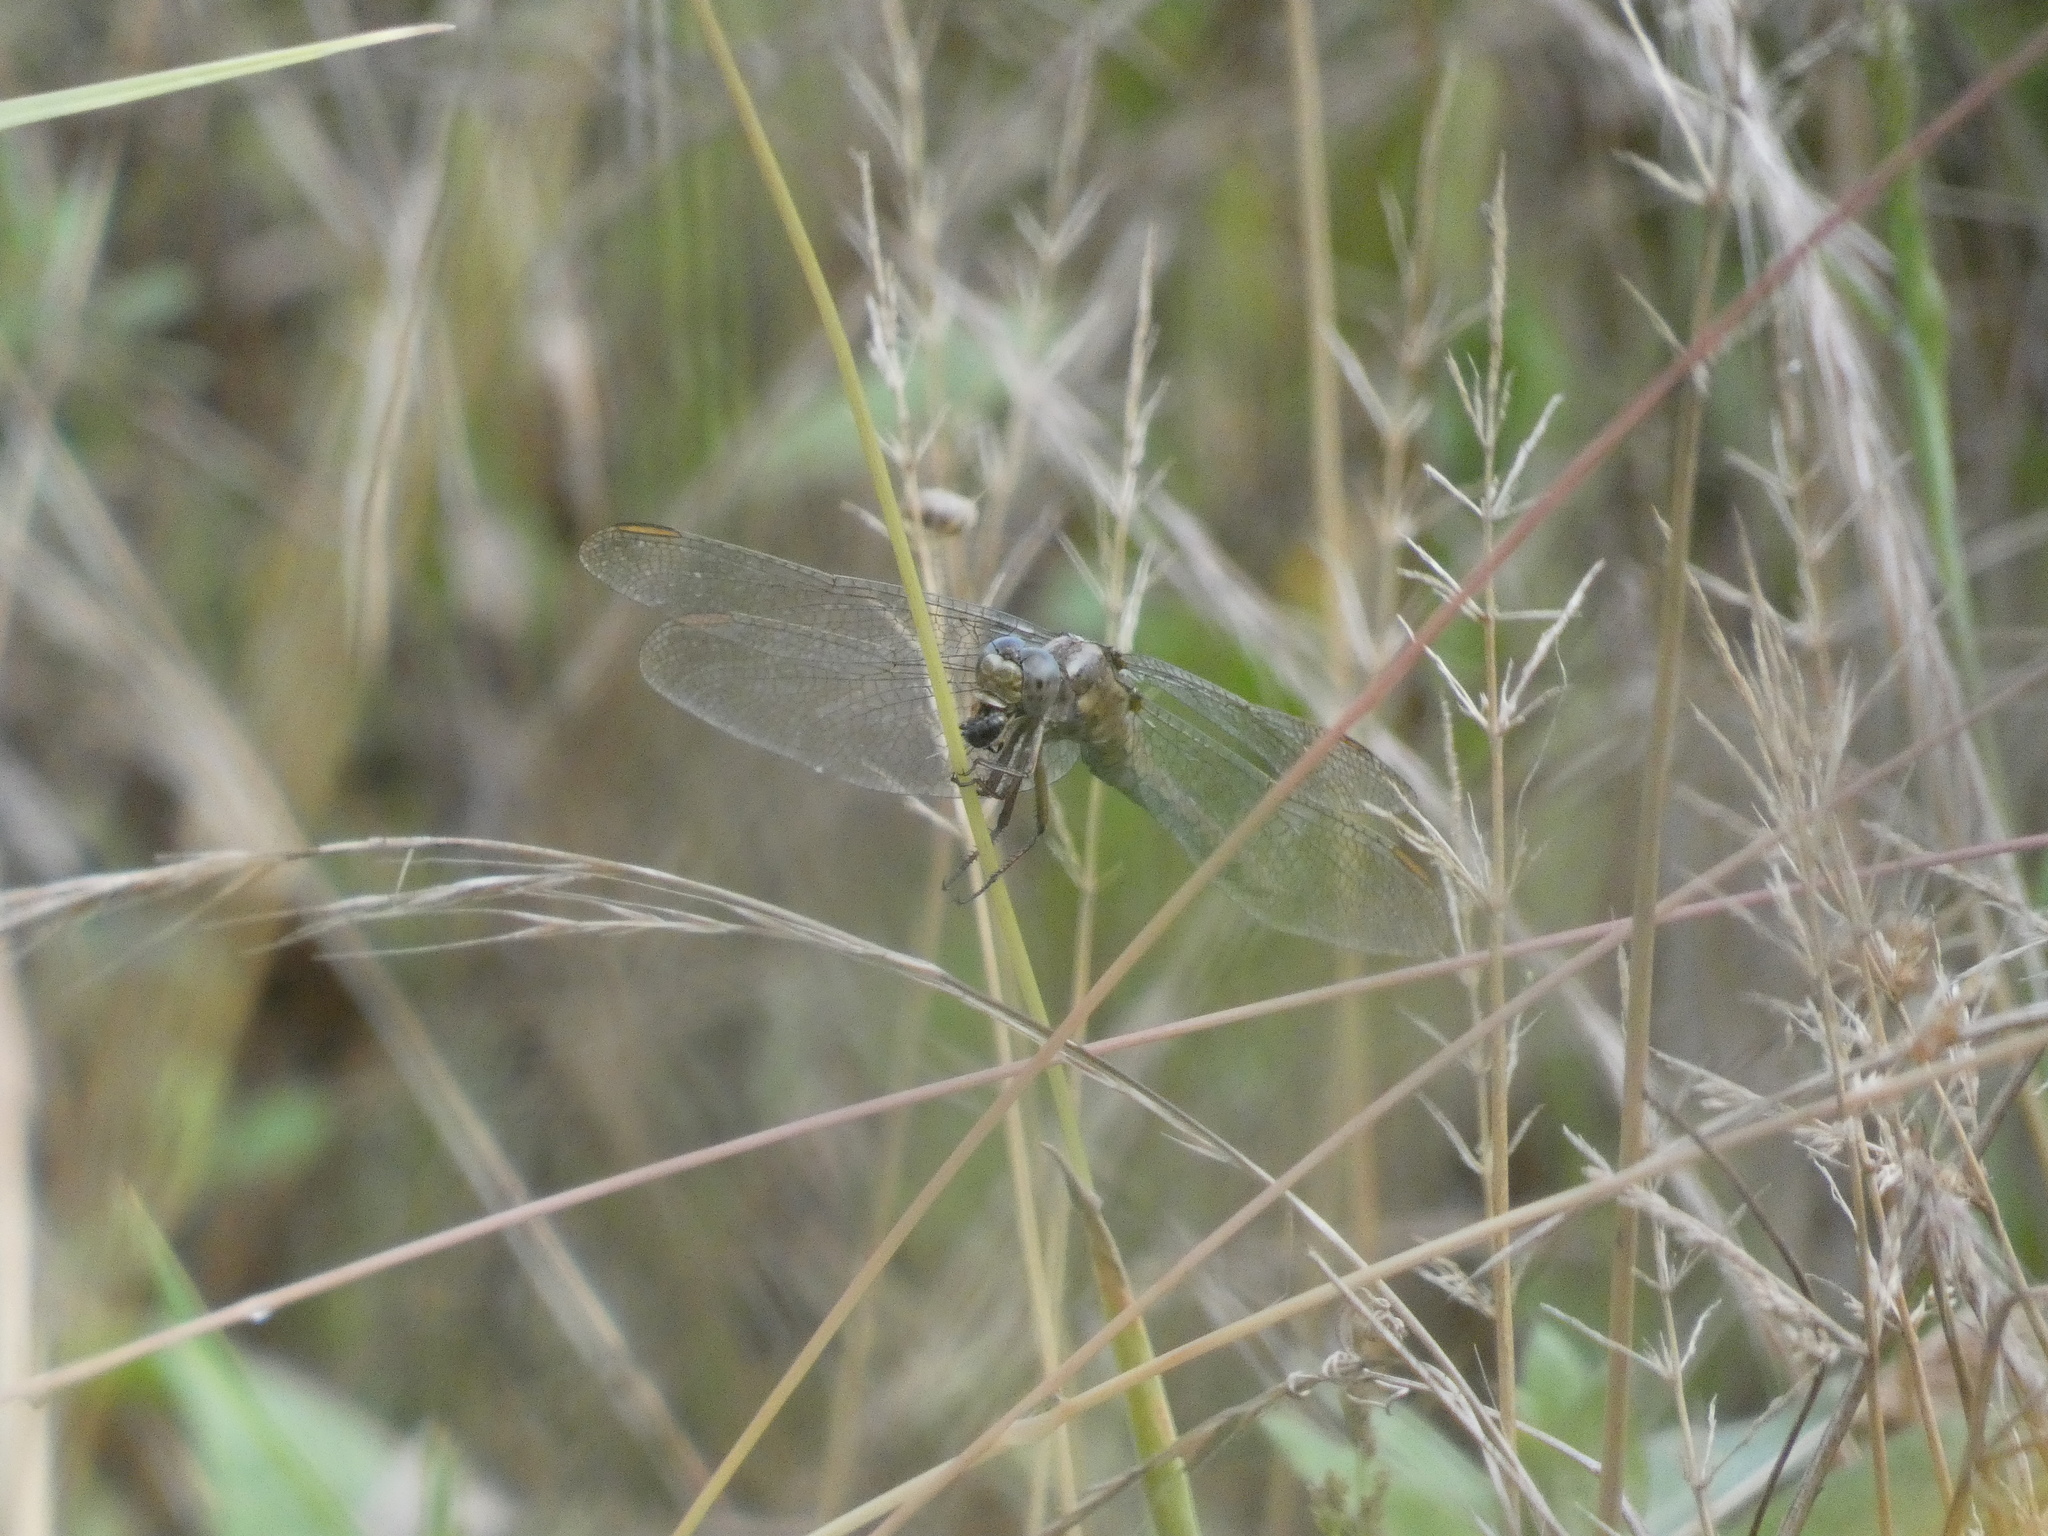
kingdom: Animalia
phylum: Arthropoda
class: Insecta
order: Odonata
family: Libellulidae
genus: Orthetrum
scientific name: Orthetrum coerulescens
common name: Keeled skimmer
